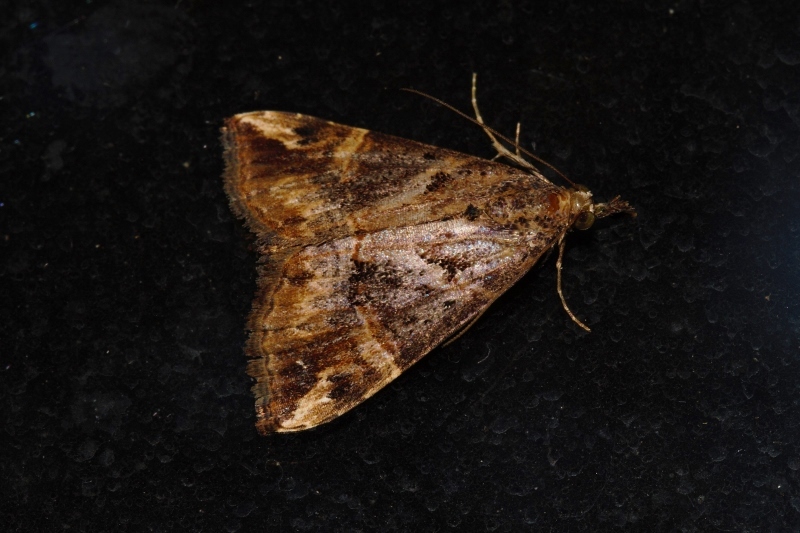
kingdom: Animalia
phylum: Arthropoda
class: Insecta
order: Lepidoptera
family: Erebidae
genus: Hypena
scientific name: Hypena strigatus
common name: Moth
